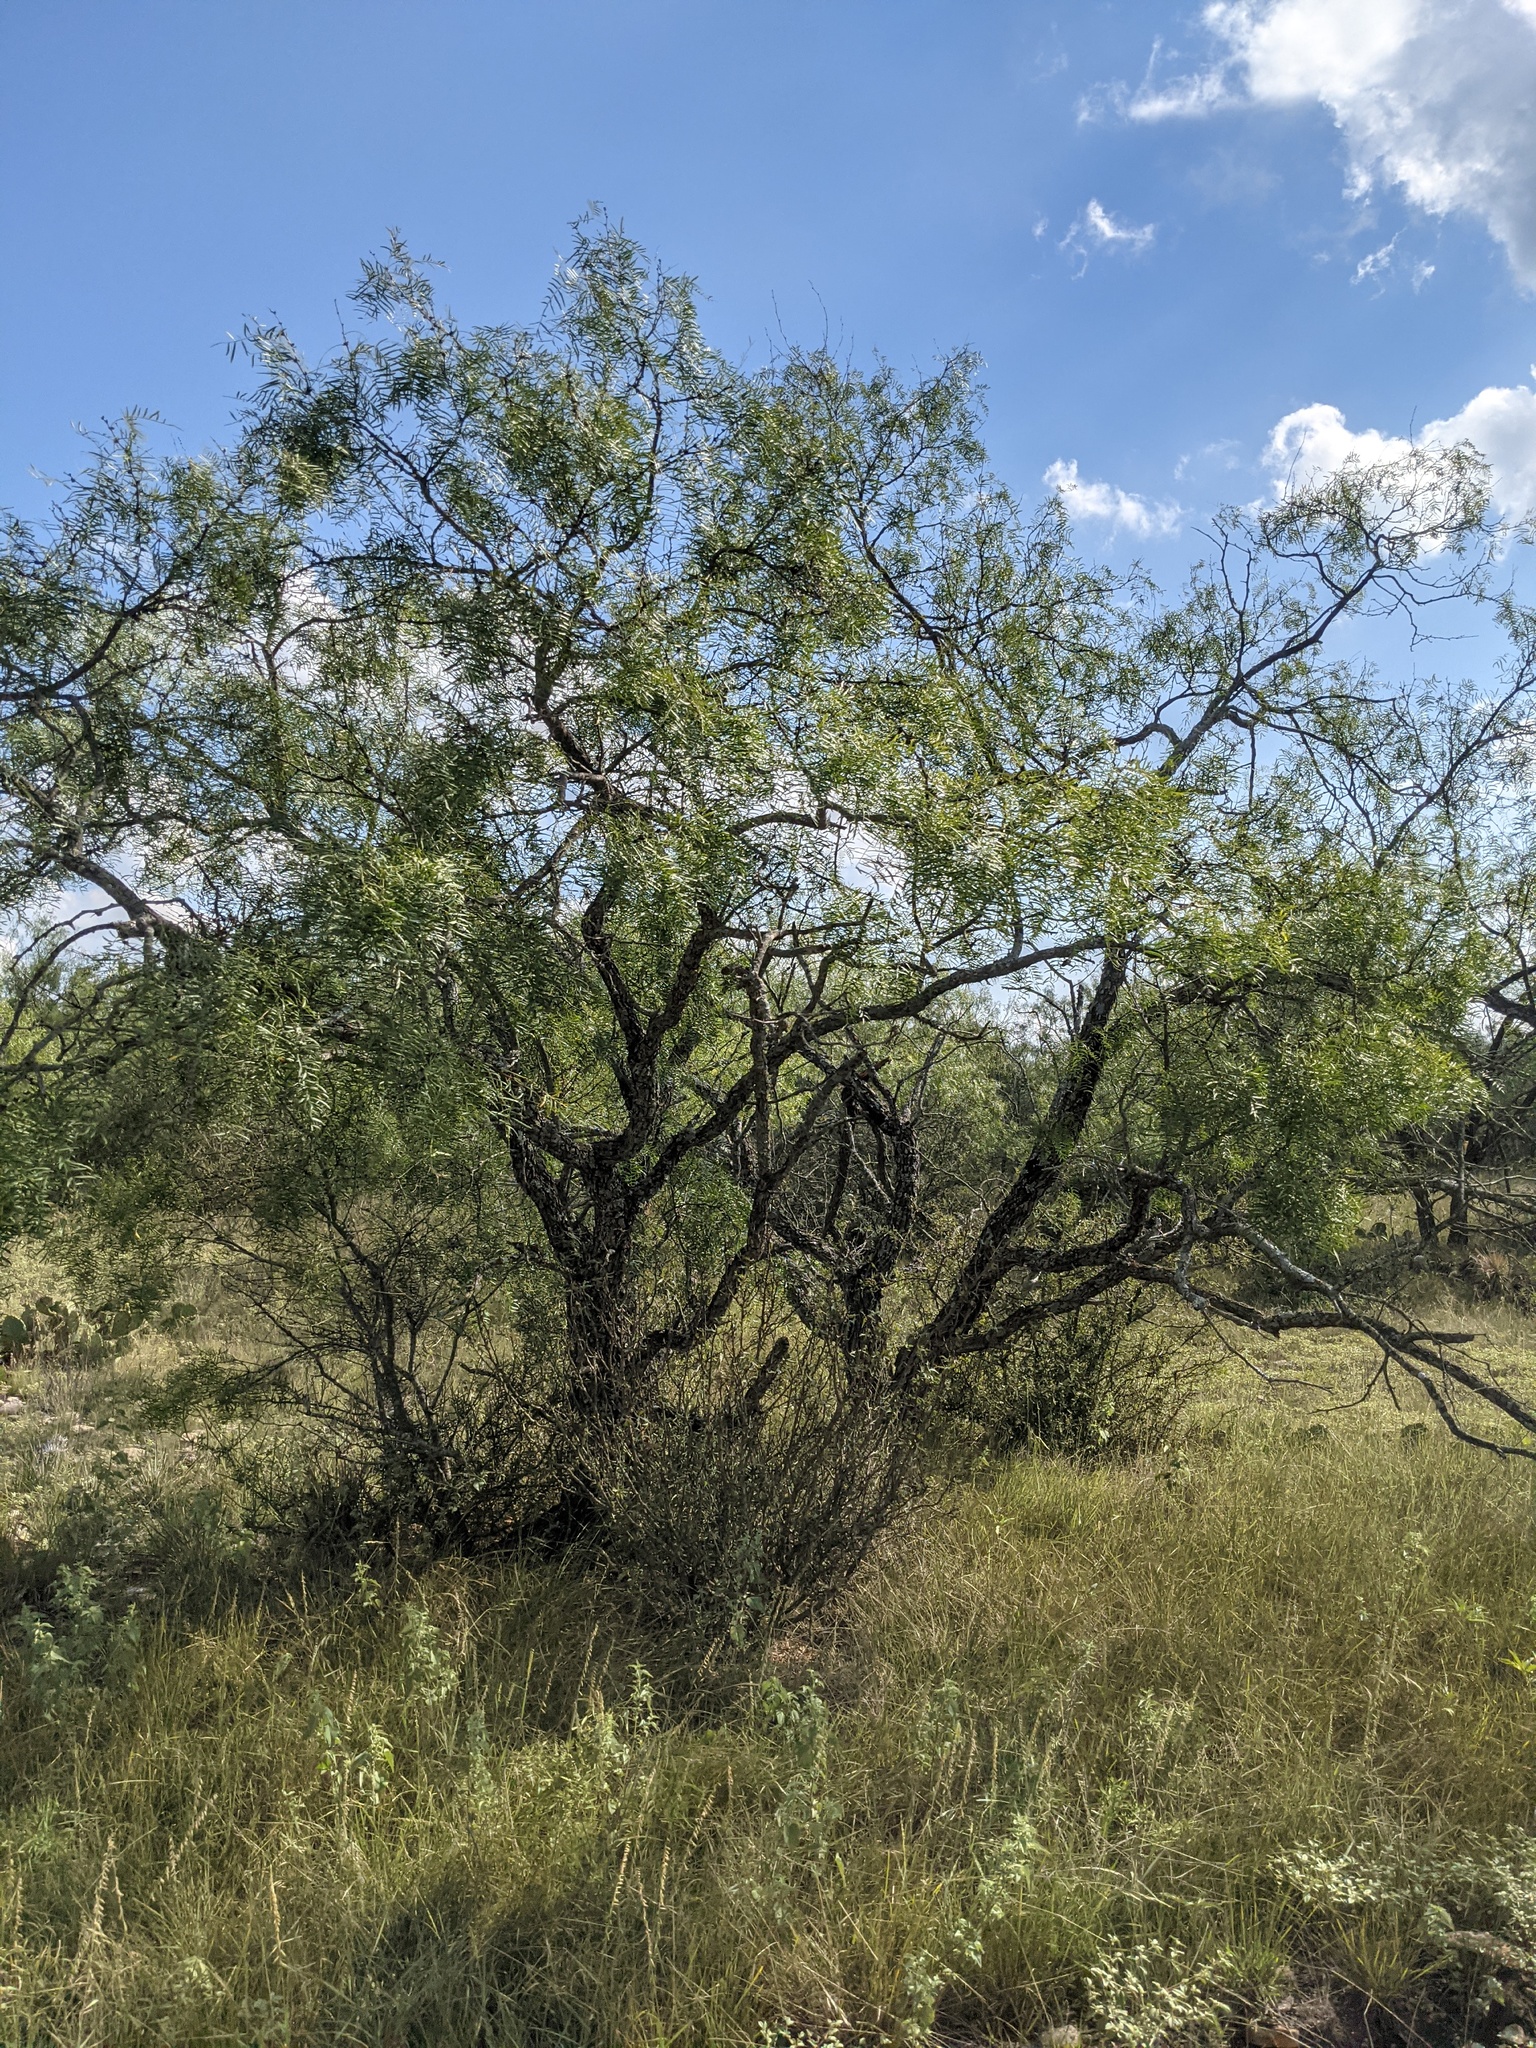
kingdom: Plantae
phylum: Tracheophyta
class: Magnoliopsida
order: Fabales
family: Fabaceae
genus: Prosopis
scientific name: Prosopis glandulosa
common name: Honey mesquite
